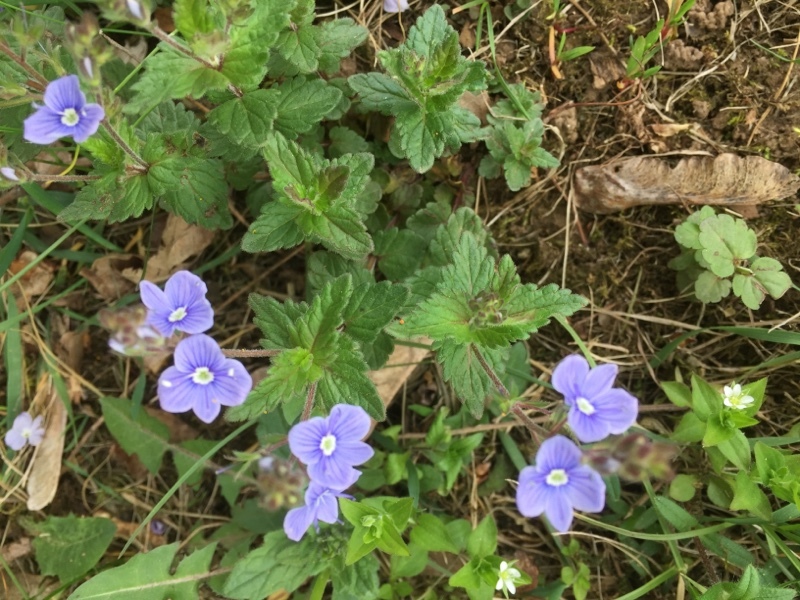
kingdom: Plantae
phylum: Tracheophyta
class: Magnoliopsida
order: Lamiales
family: Plantaginaceae
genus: Veronica
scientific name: Veronica chamaedrys
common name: Germander speedwell
